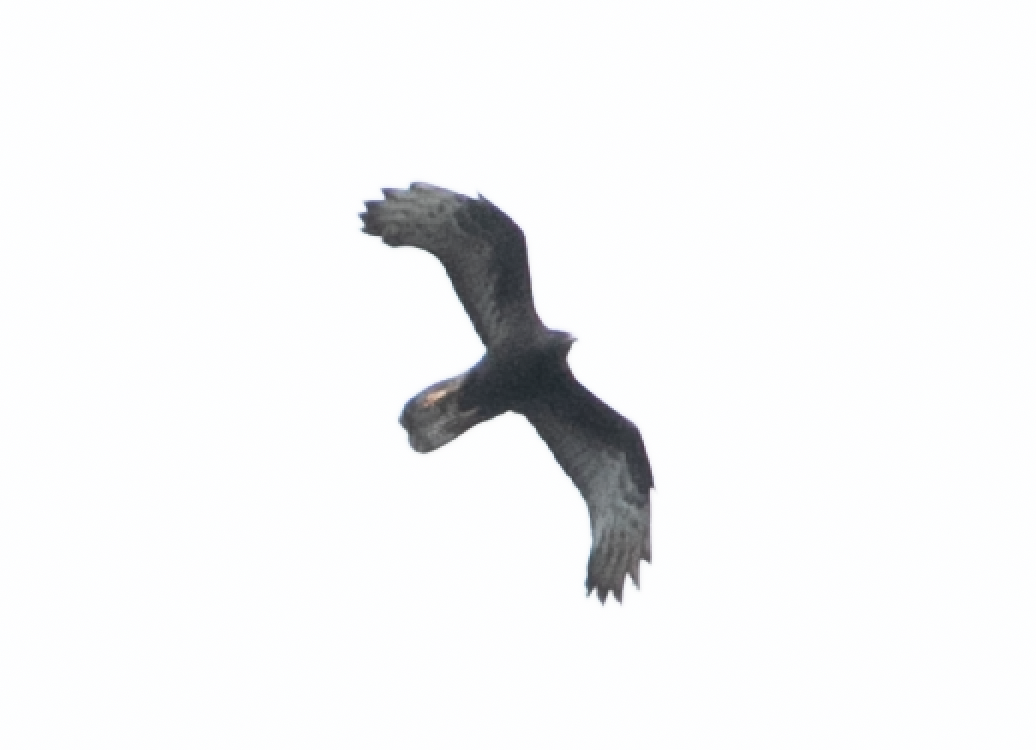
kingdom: Animalia
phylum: Chordata
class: Aves
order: Accipitriformes
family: Accipitridae
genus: Pernis
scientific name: Pernis apivorus
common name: European honey buzzard
